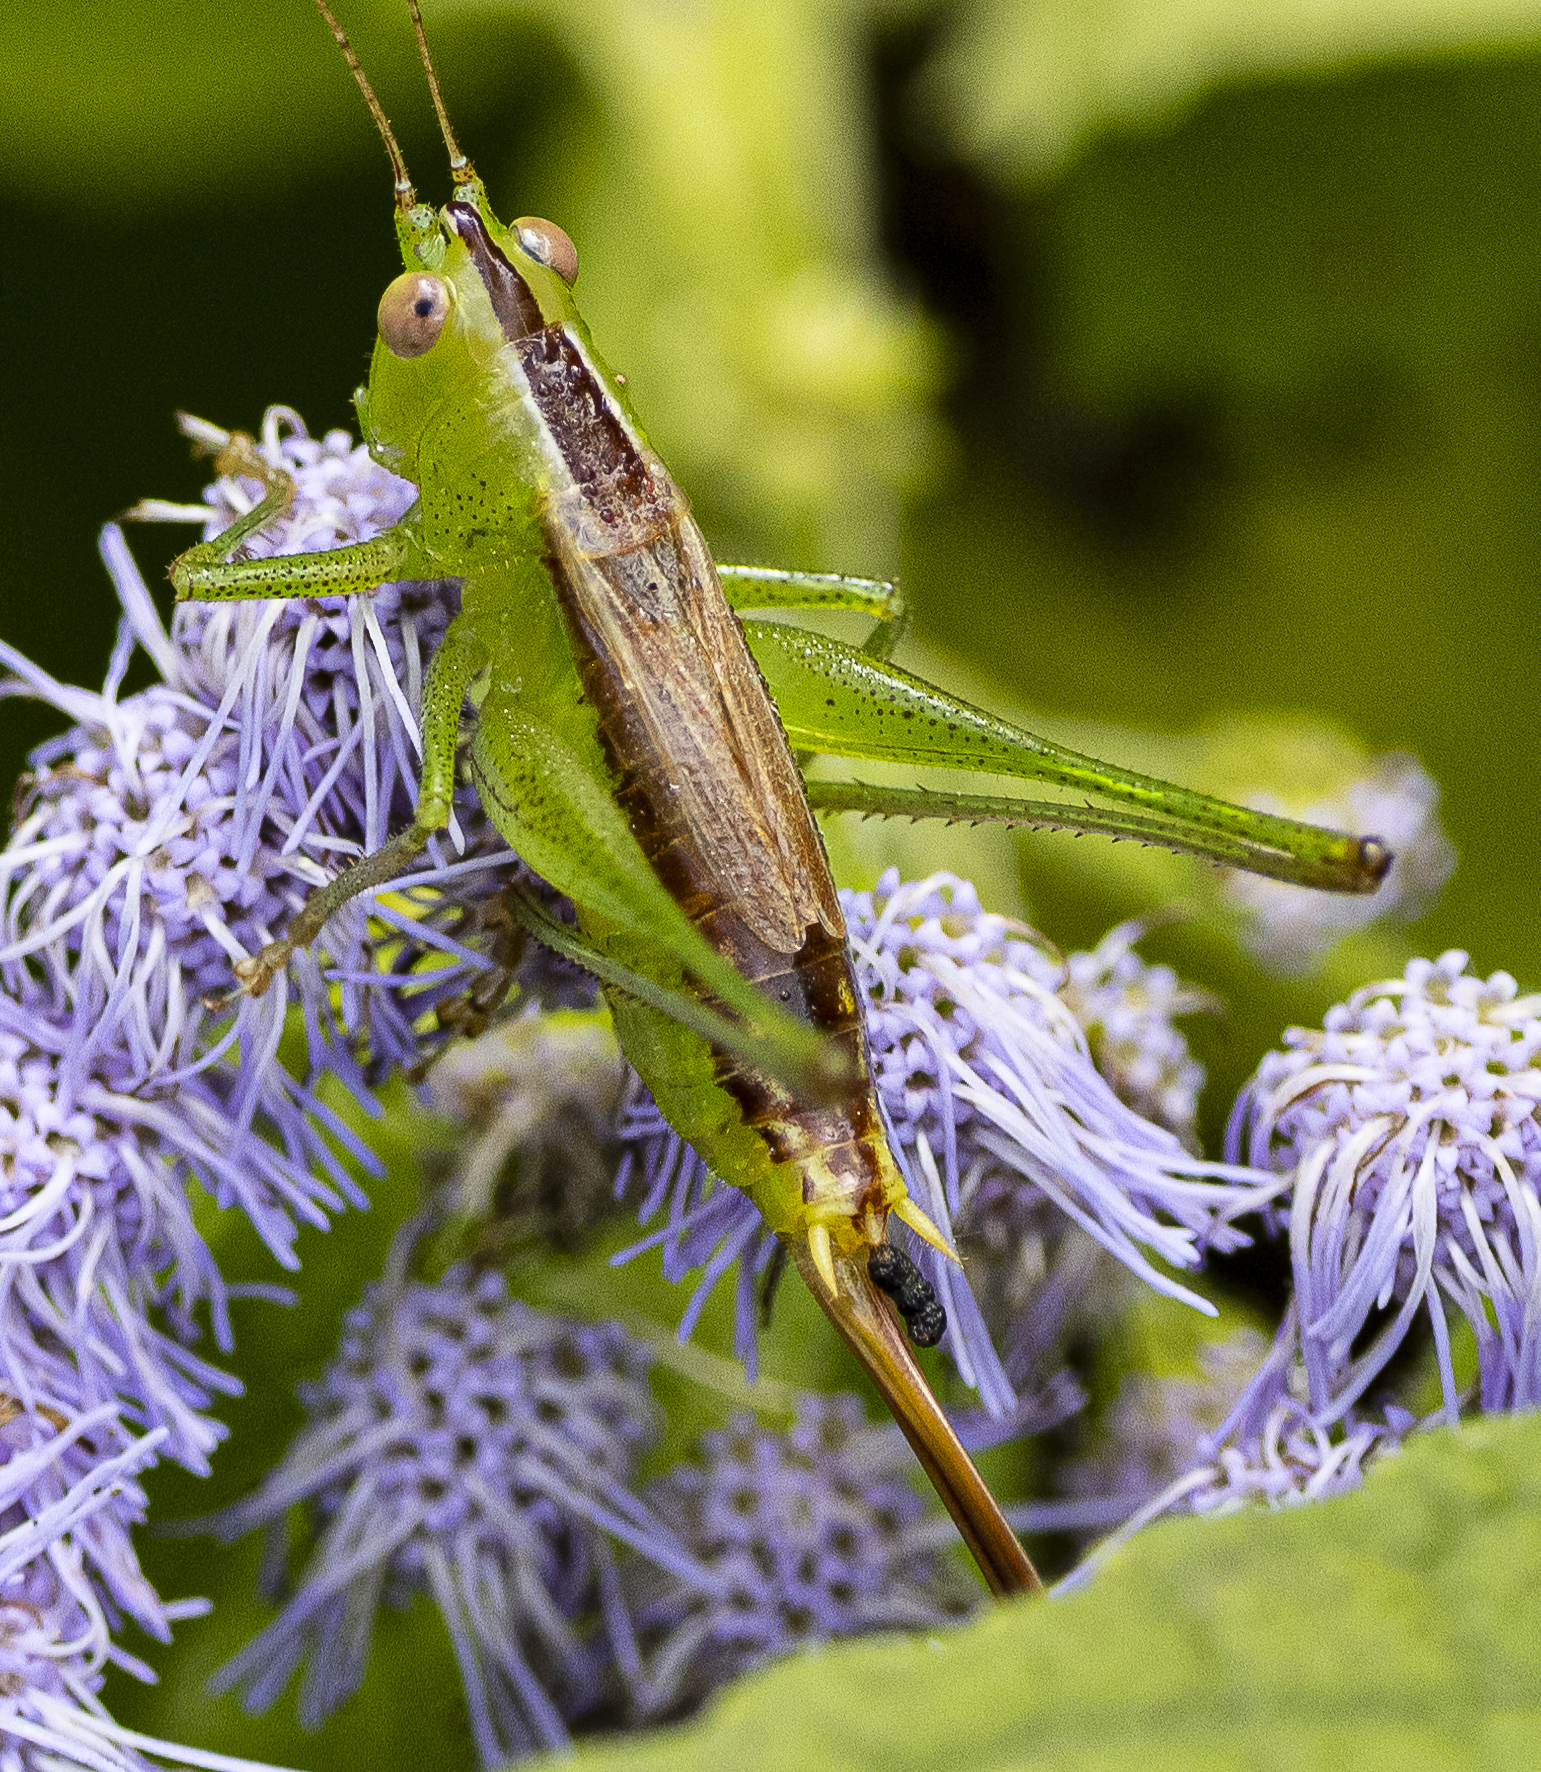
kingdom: Animalia
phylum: Arthropoda
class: Insecta
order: Orthoptera
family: Tettigoniidae
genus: Conocephalus
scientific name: Conocephalus brevipennis
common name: Short-winged meadow katydid
